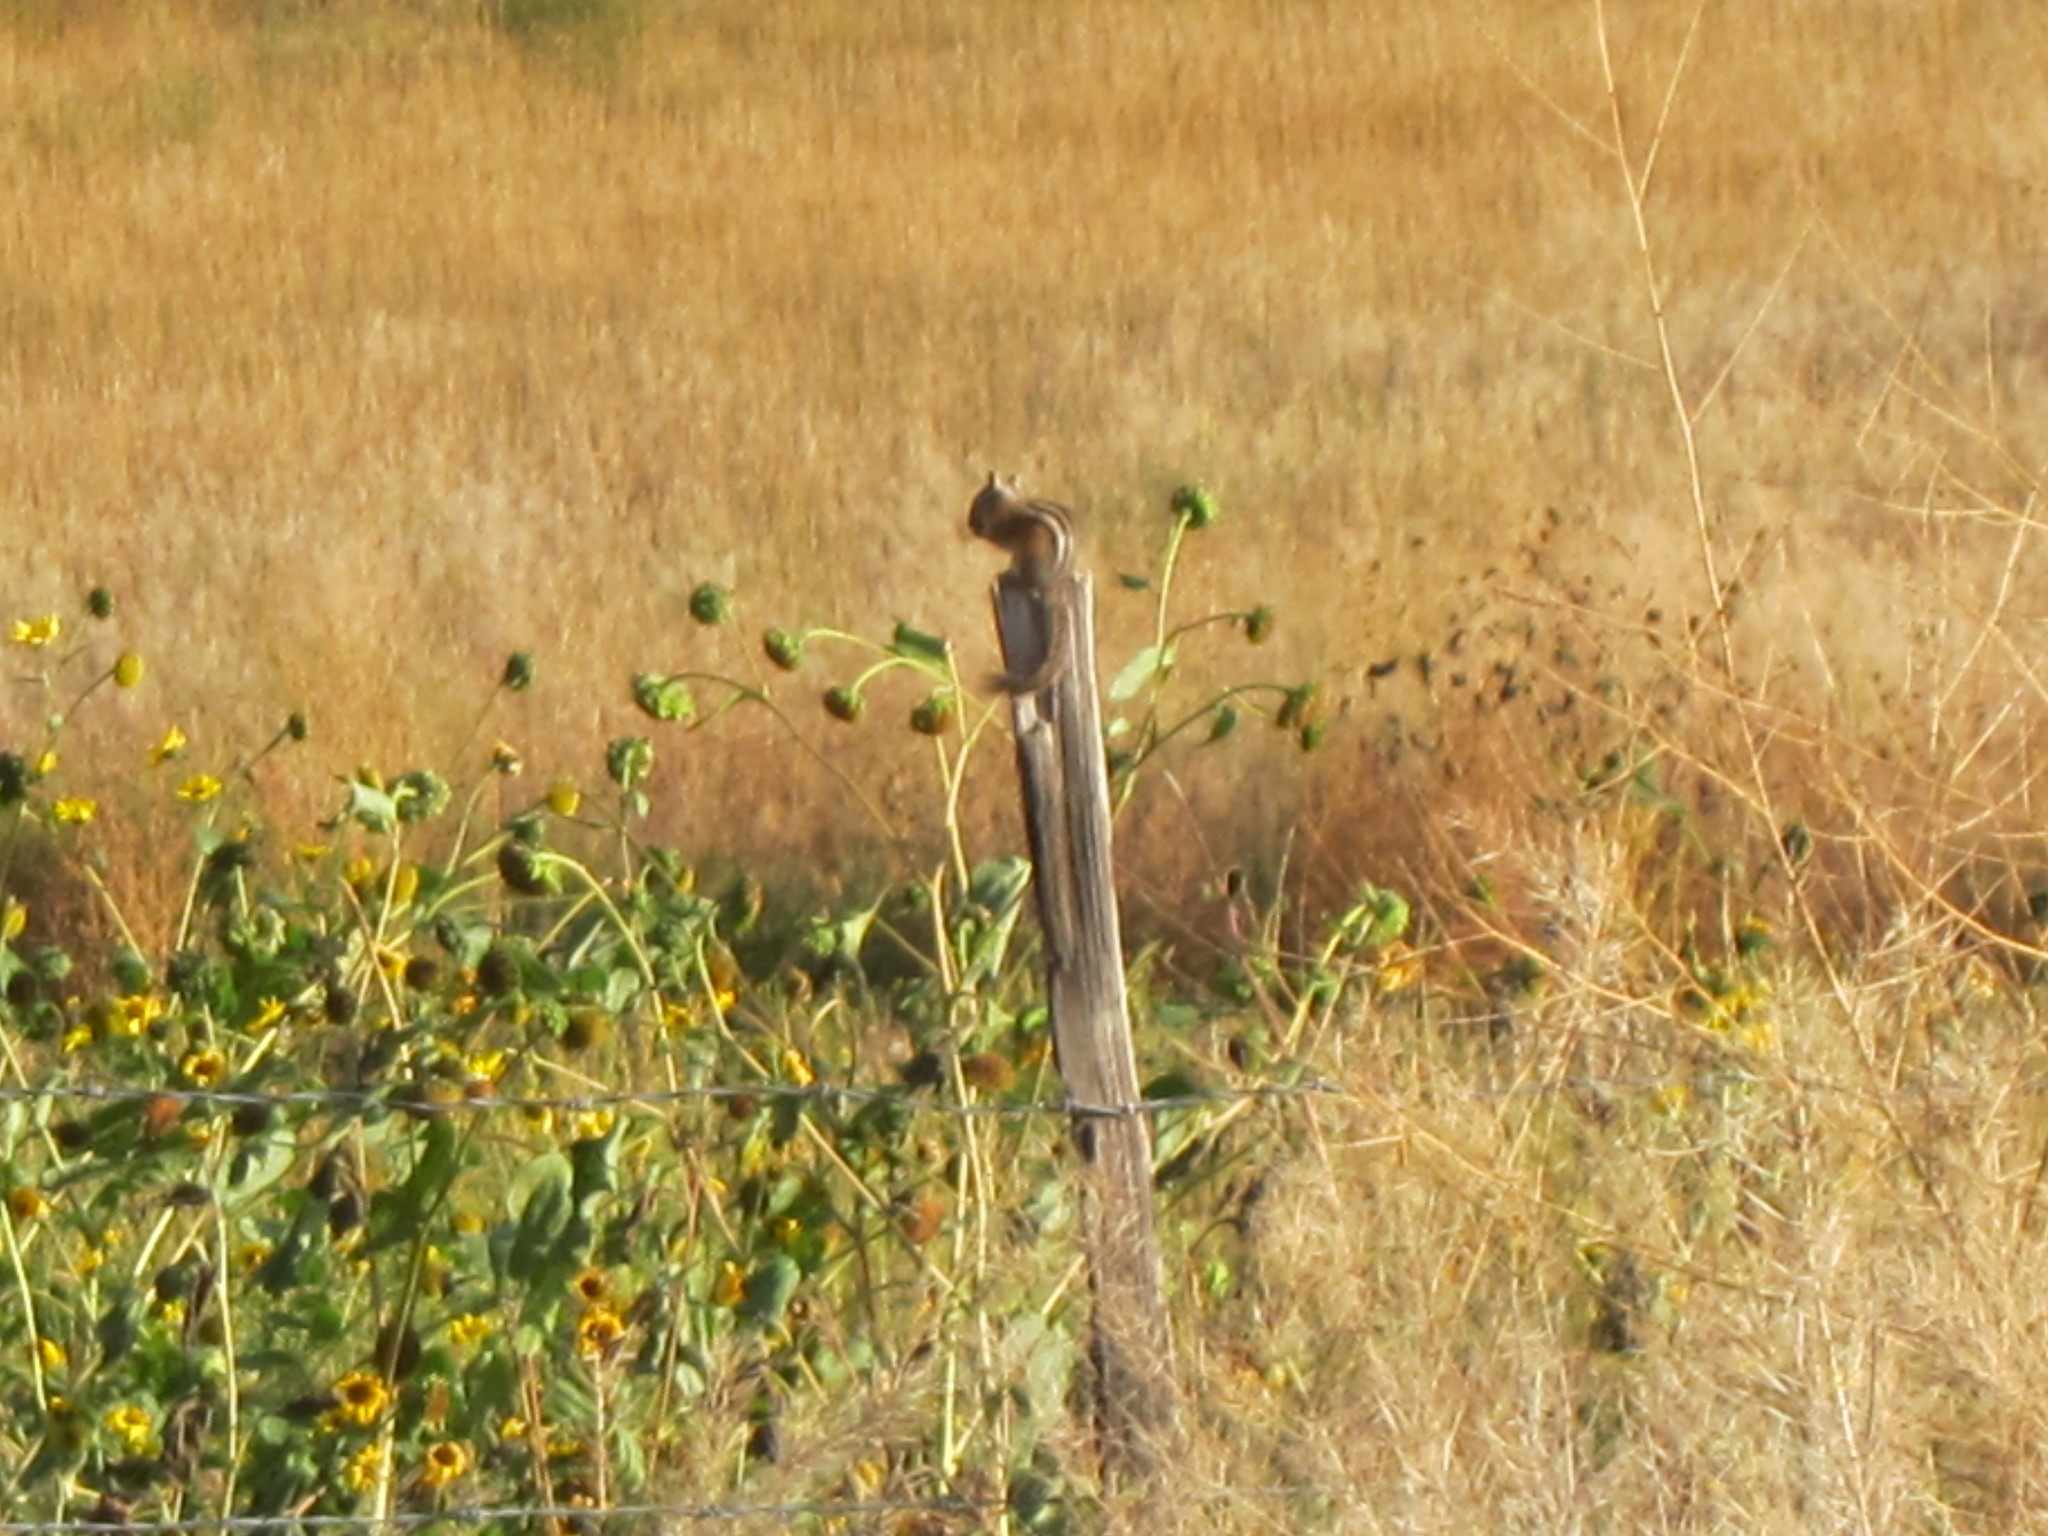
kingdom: Animalia
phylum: Chordata
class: Mammalia
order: Rodentia
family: Sciuridae
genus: Tamias
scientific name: Tamias amoenus
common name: Yellow-pine chipmunk
